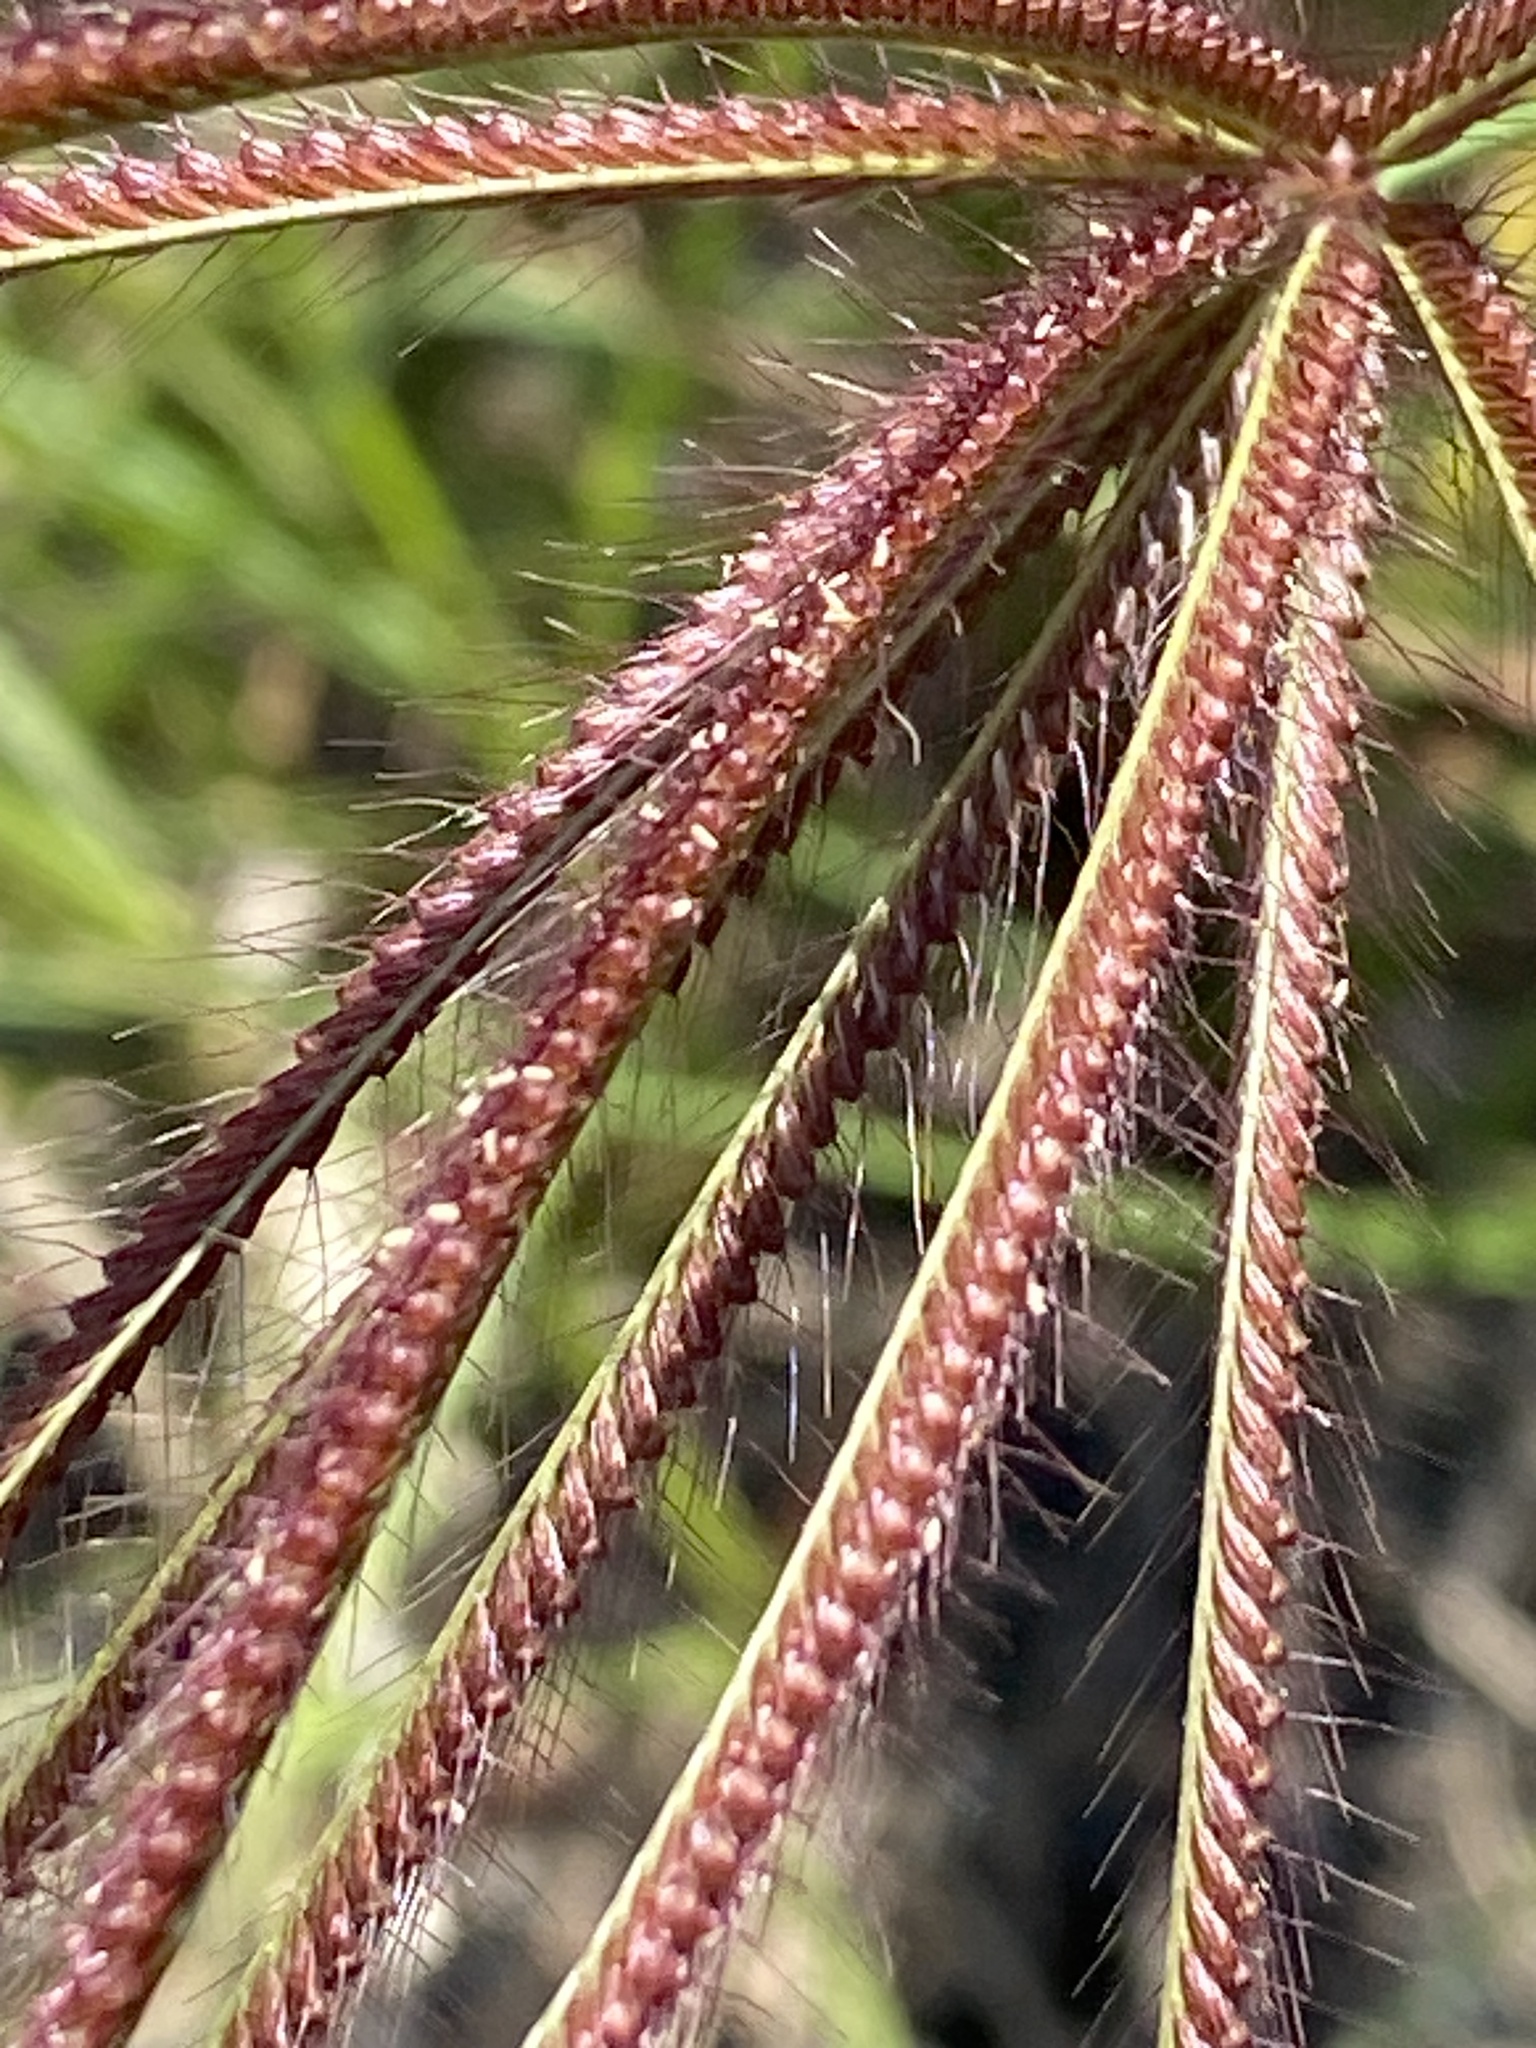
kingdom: Plantae
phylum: Tracheophyta
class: Liliopsida
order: Poales
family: Poaceae
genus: Chloris
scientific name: Chloris barbata
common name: Swollen fingergrass
